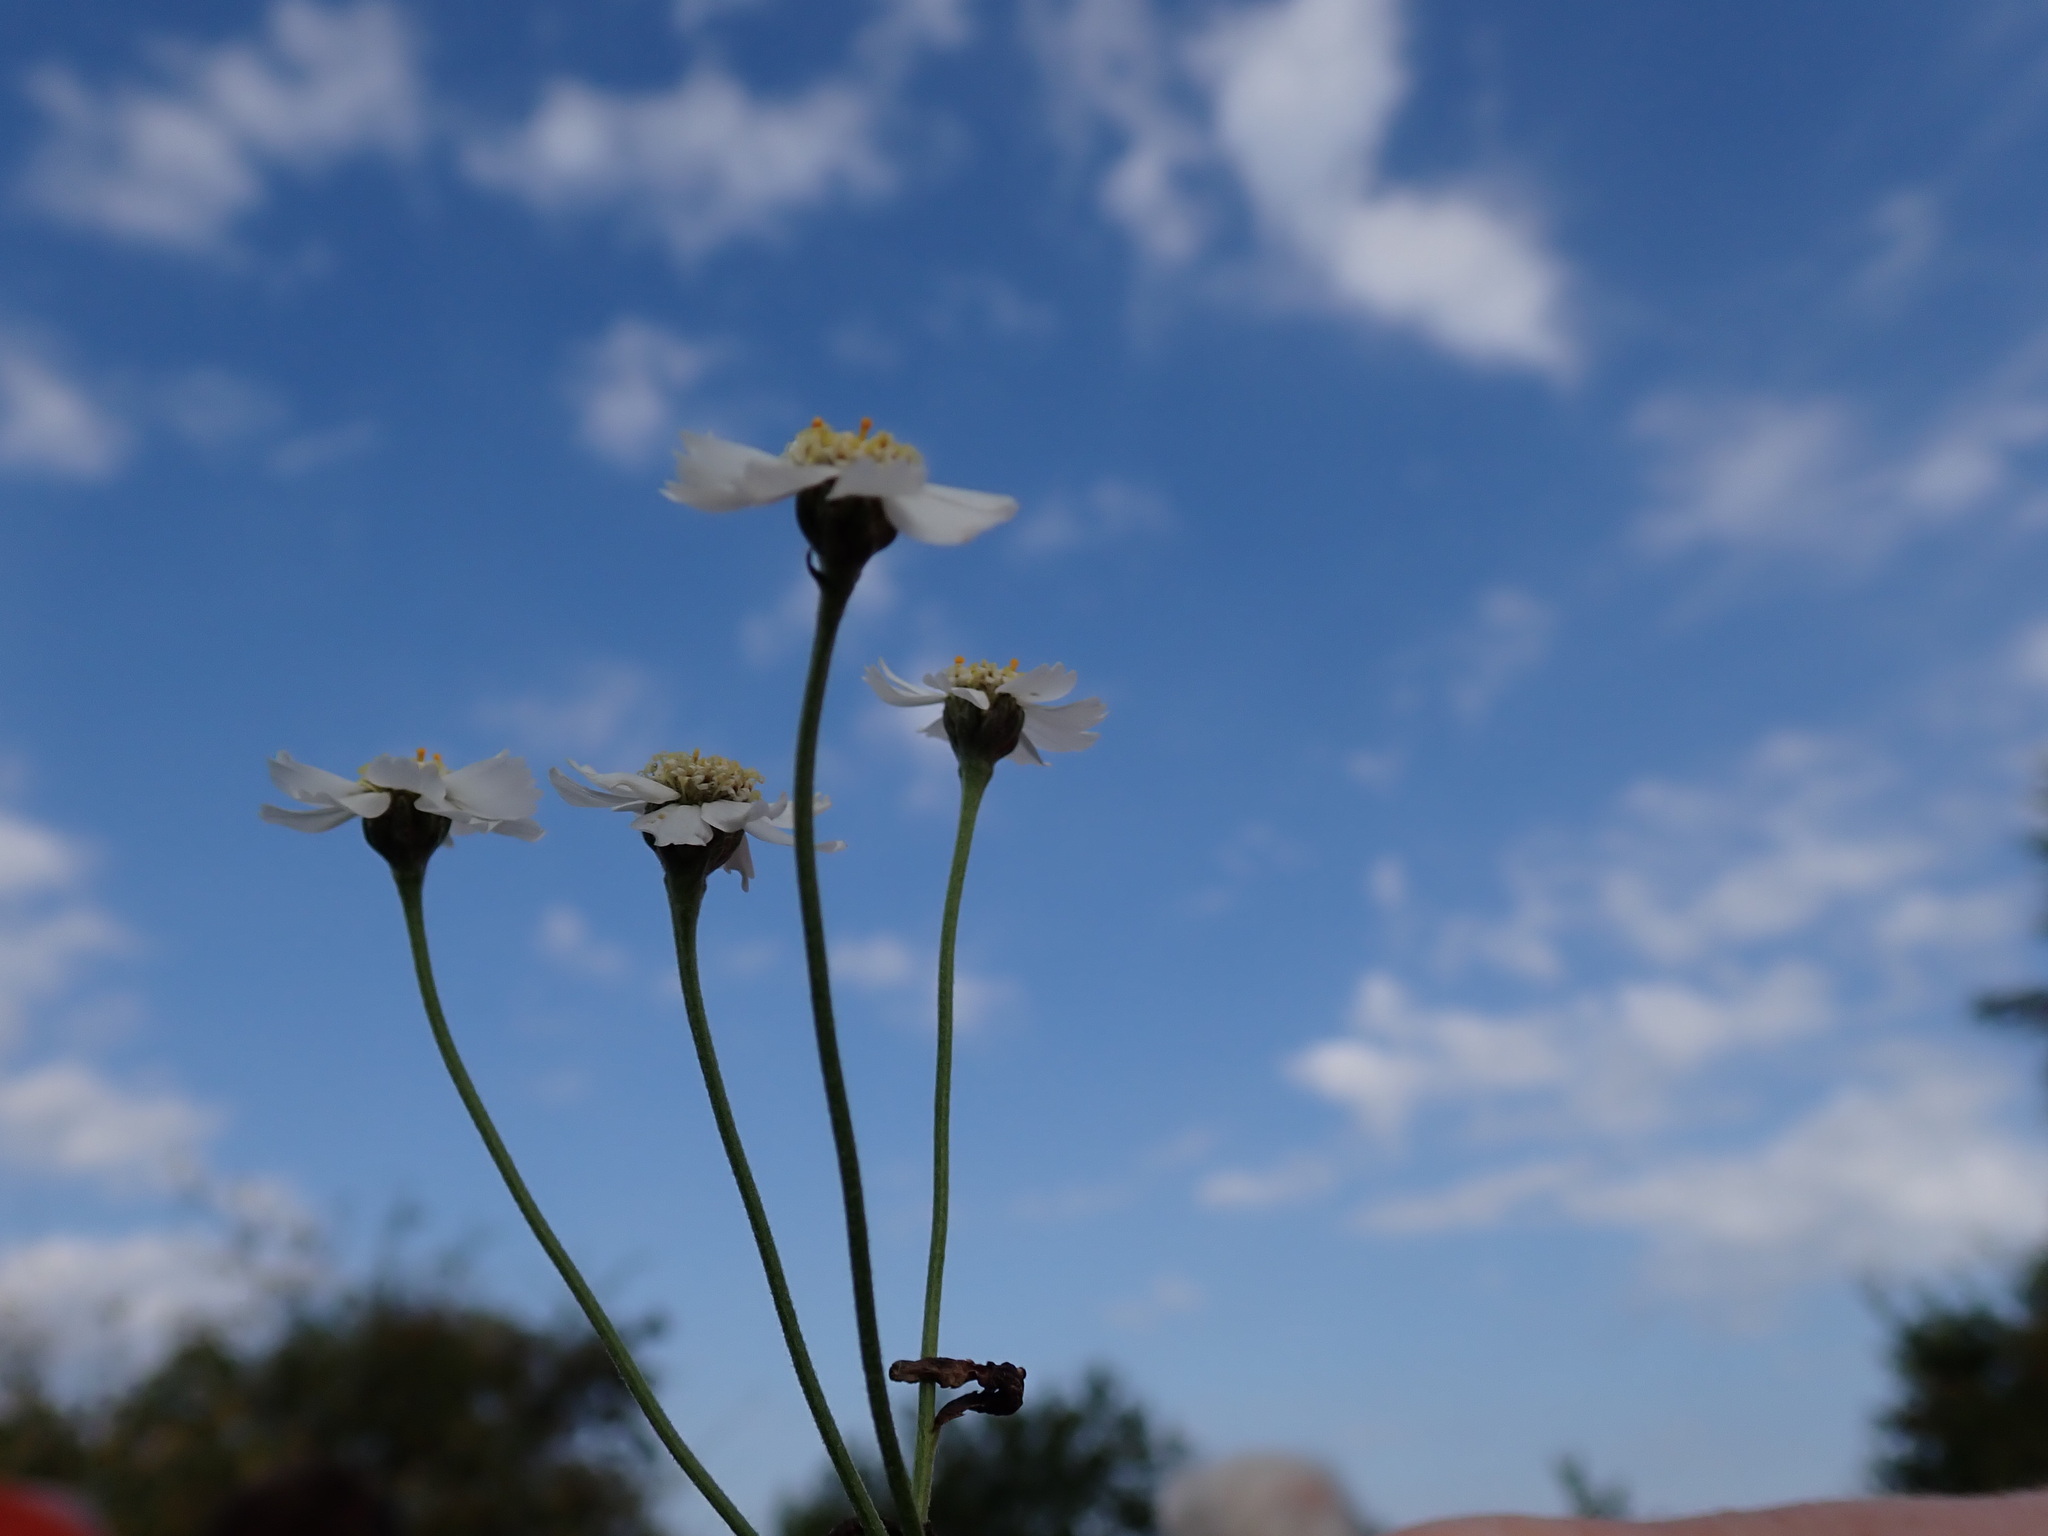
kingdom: Plantae
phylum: Tracheophyta
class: Magnoliopsida
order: Asterales
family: Asteraceae
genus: Achillea
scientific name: Achillea ptarmica
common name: Sneezeweed
